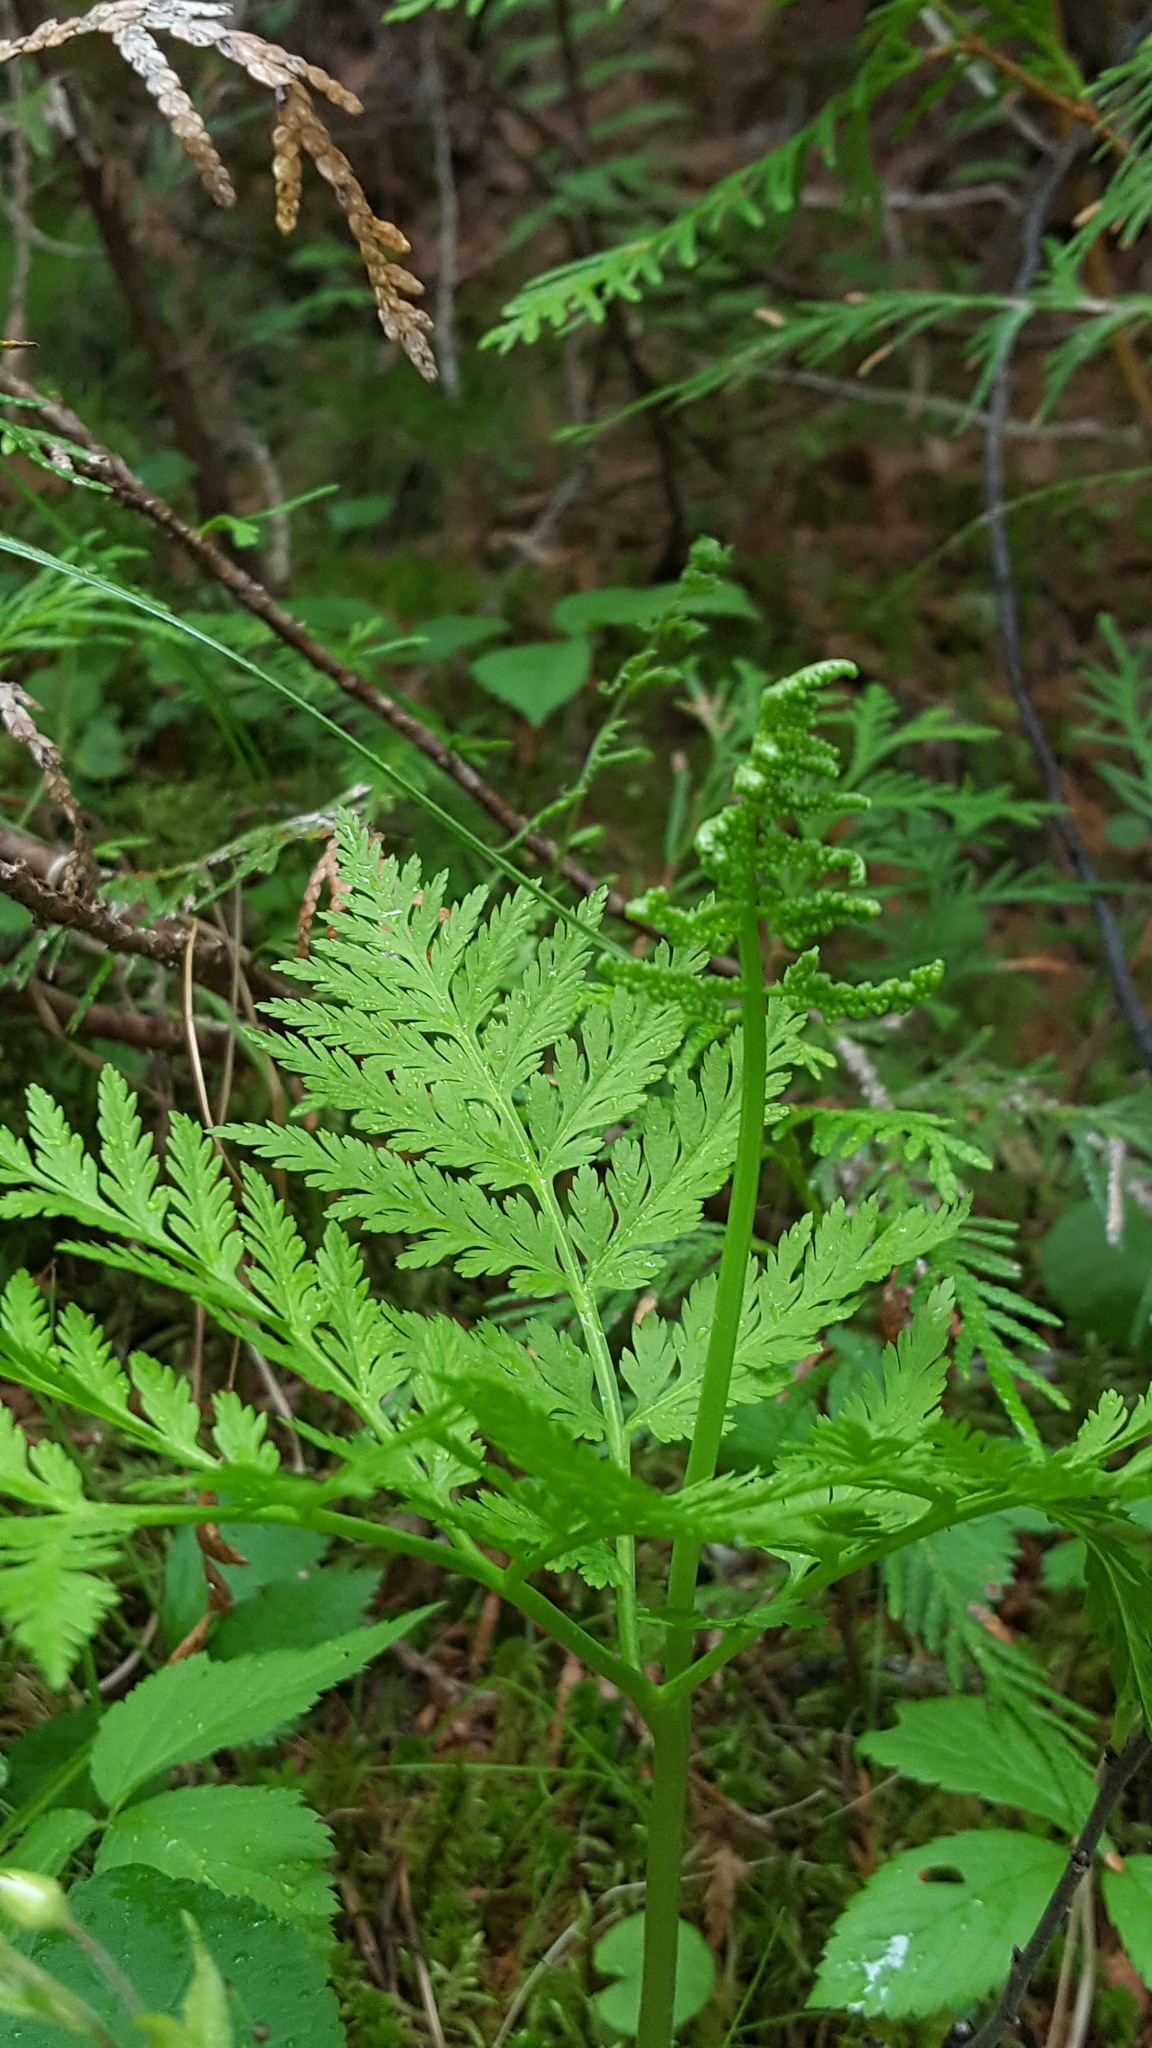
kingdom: Plantae
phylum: Tracheophyta
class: Polypodiopsida
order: Ophioglossales
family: Ophioglossaceae
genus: Botrypus
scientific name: Botrypus virginianus
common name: Common grapefern
